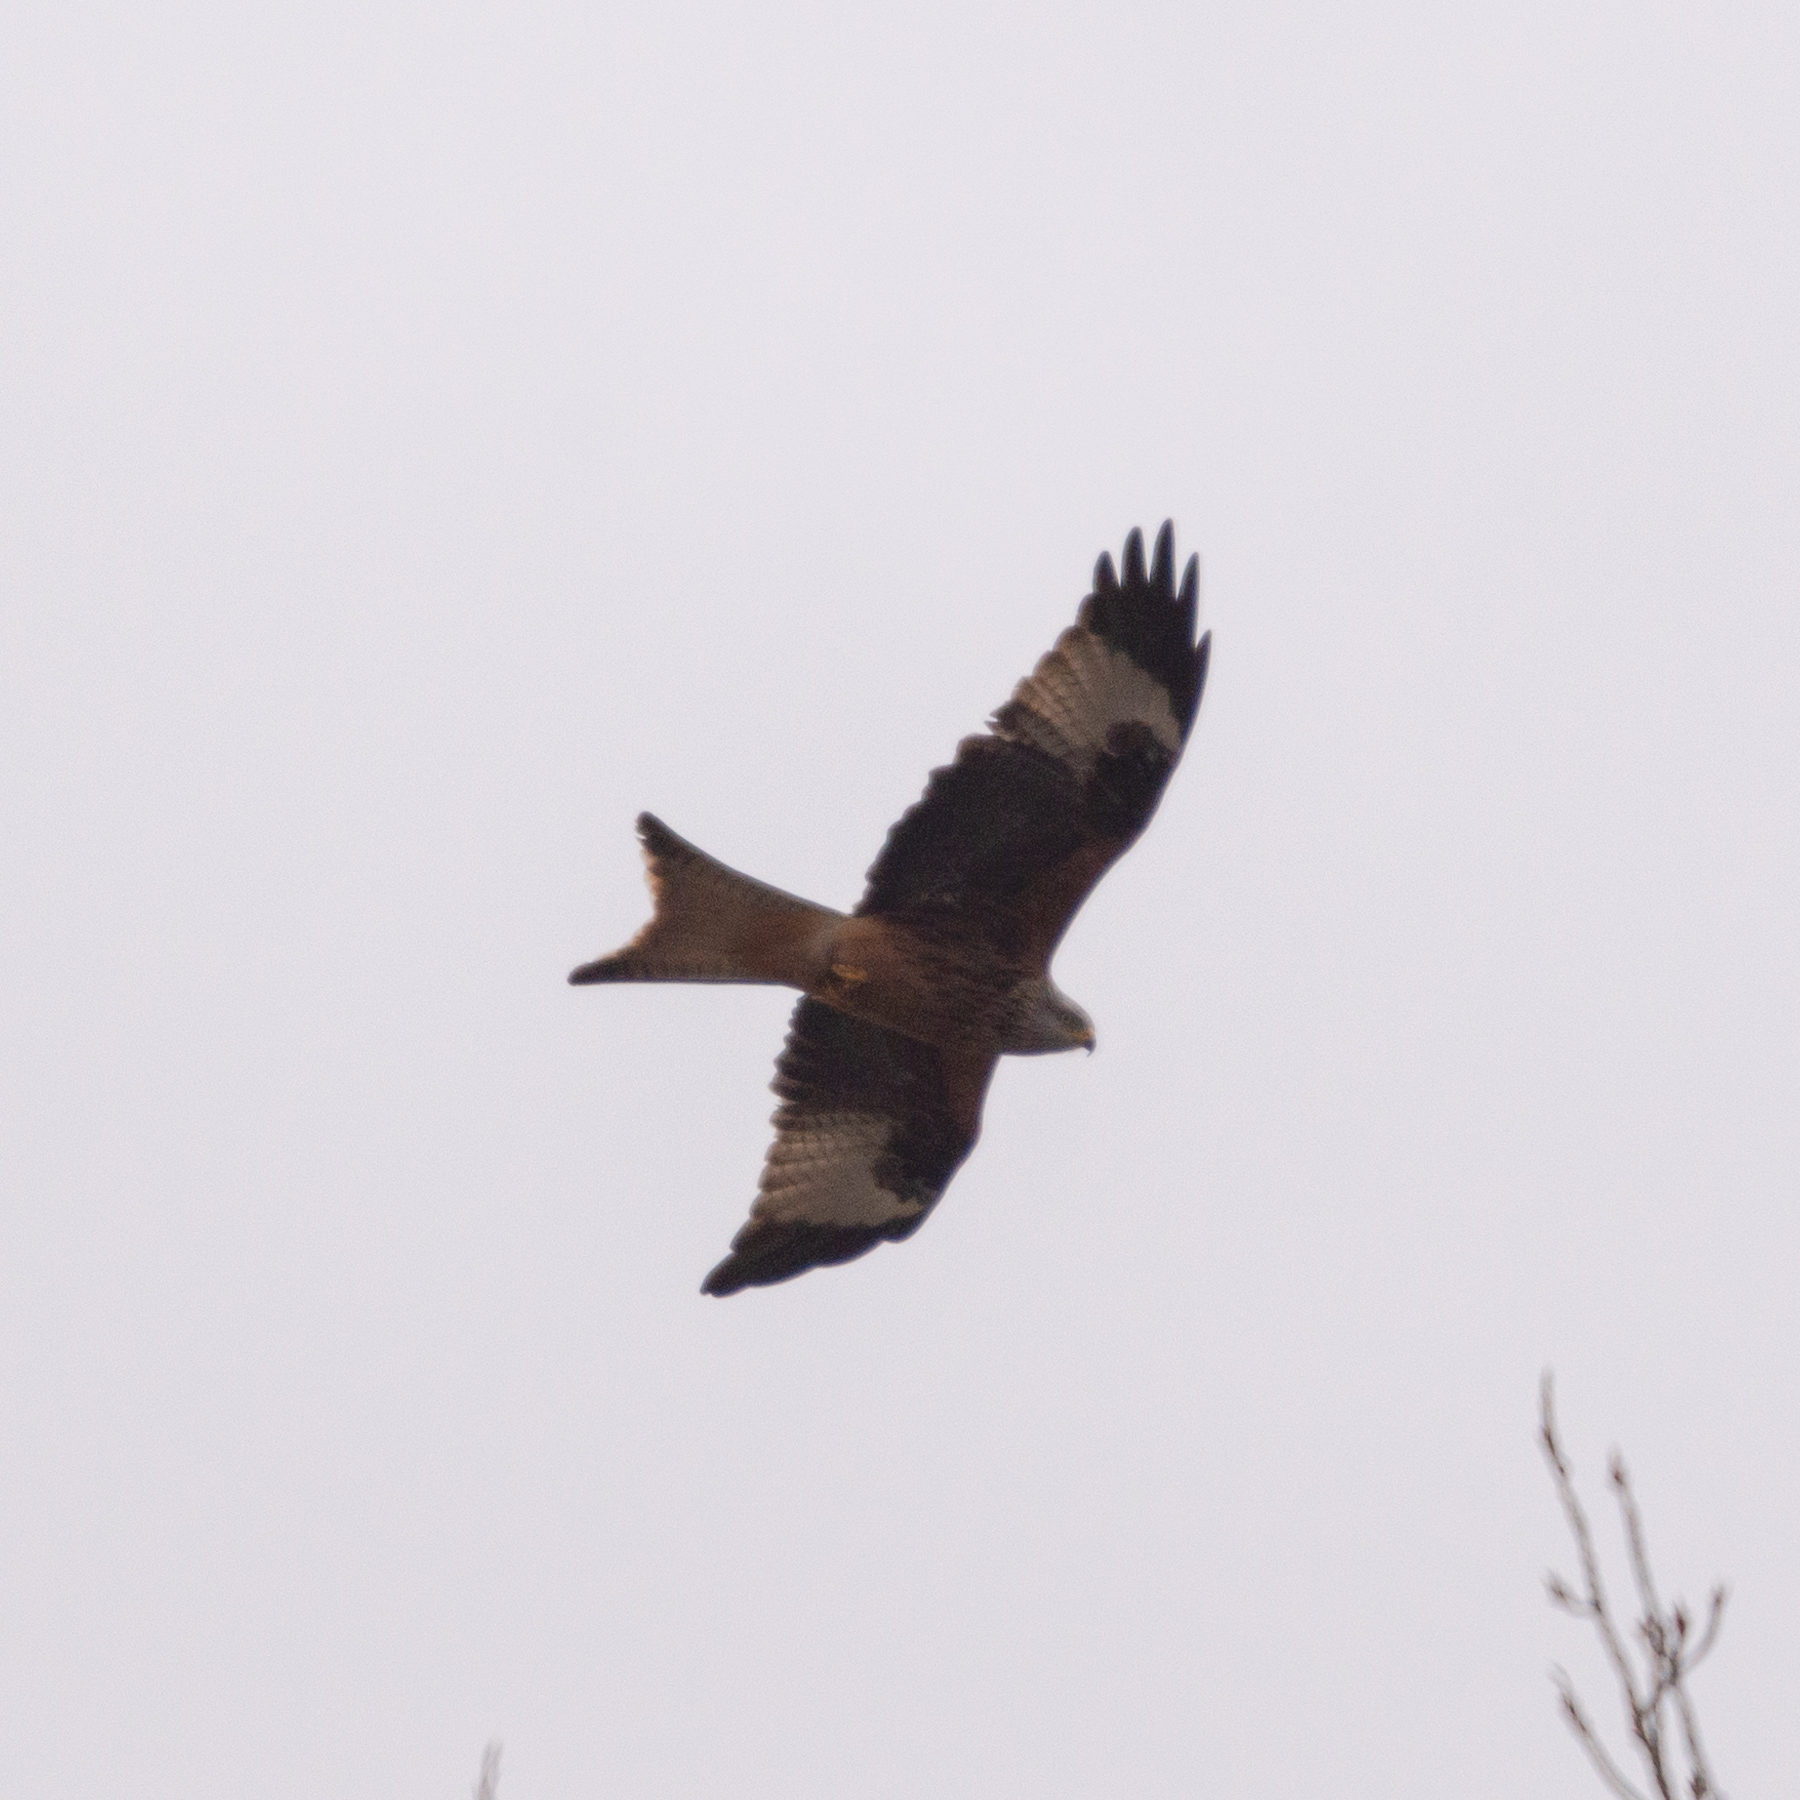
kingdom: Animalia
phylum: Chordata
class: Aves
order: Accipitriformes
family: Accipitridae
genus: Milvus
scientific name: Milvus milvus
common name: Red kite
